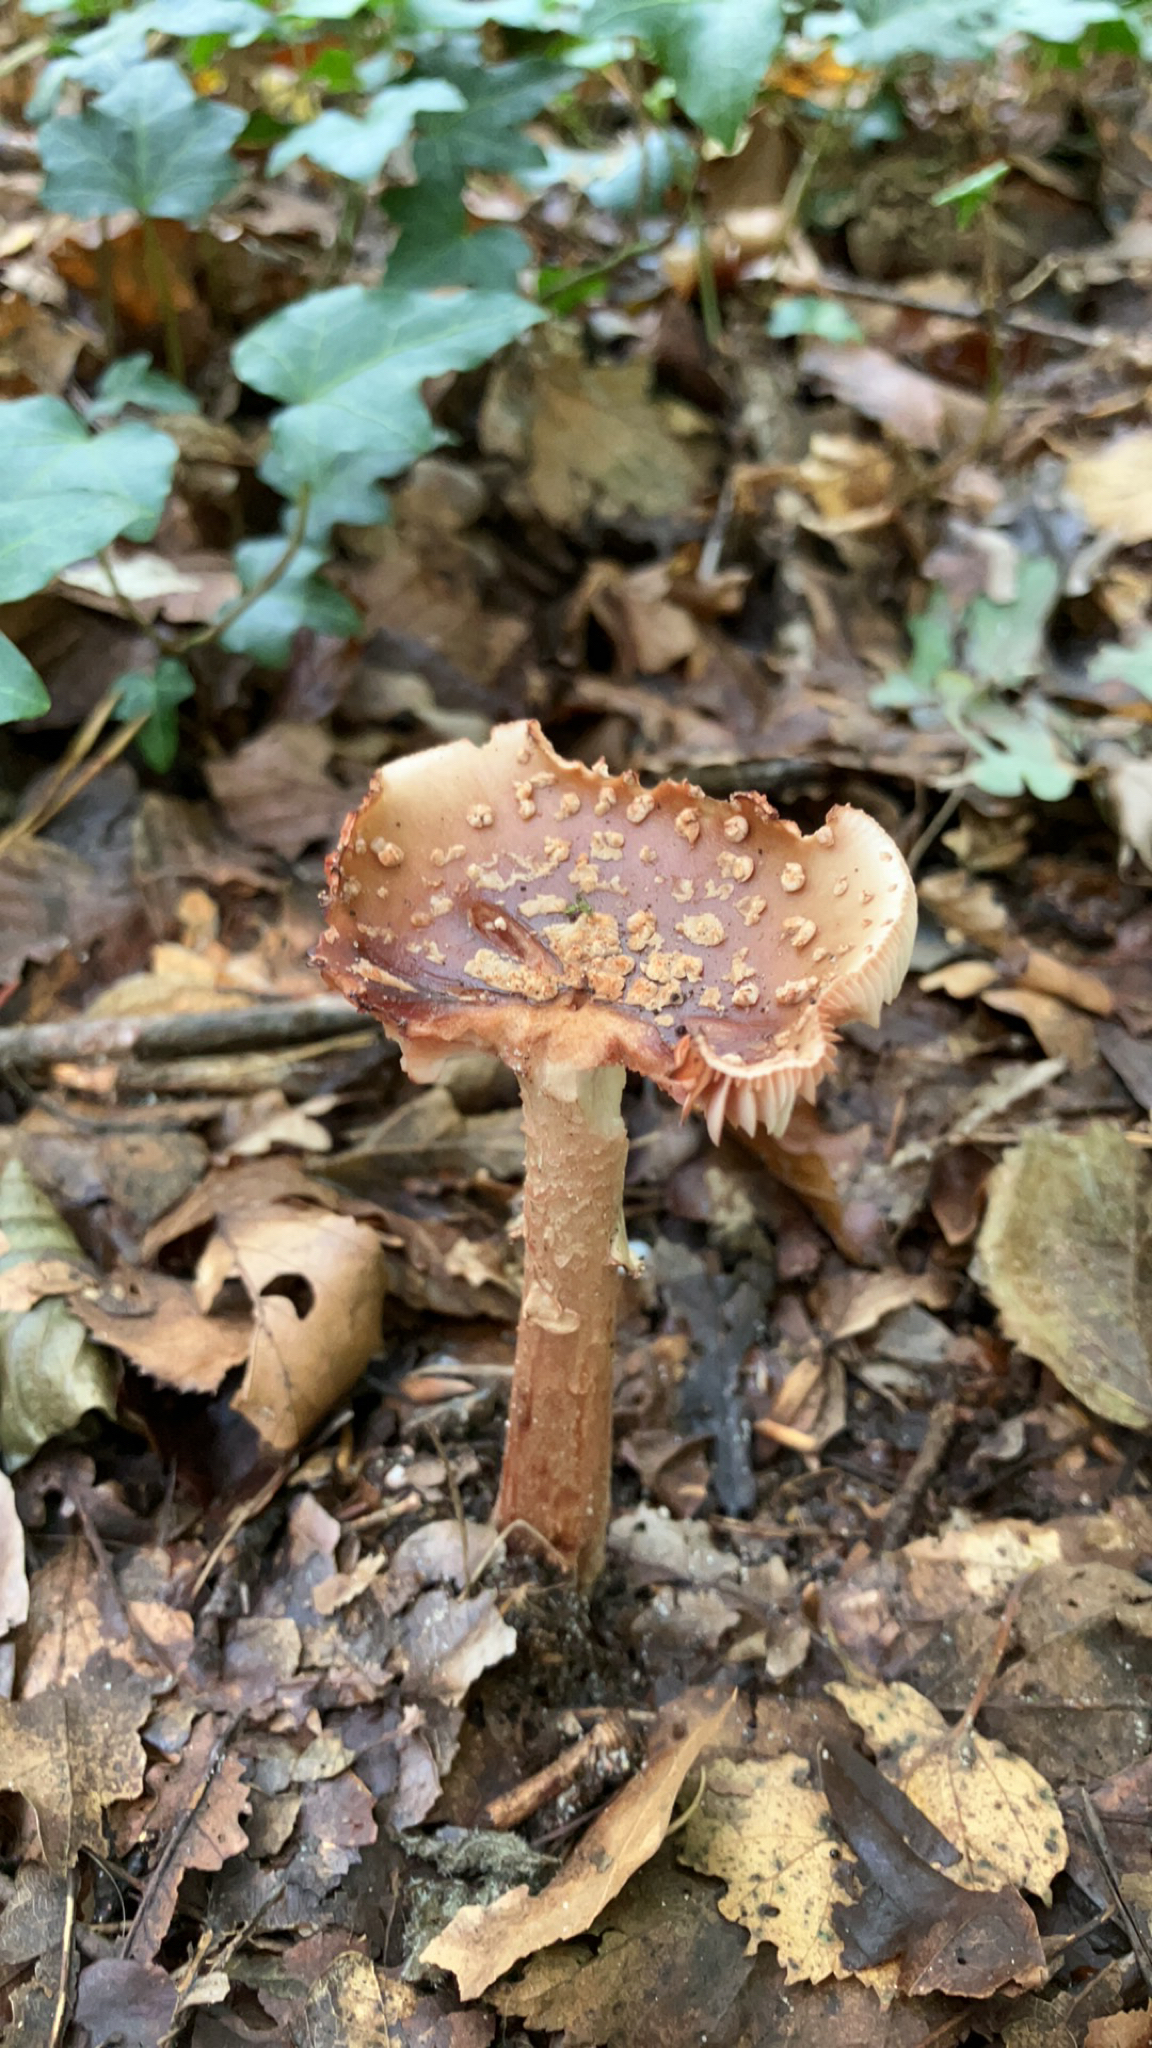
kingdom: Fungi
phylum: Basidiomycota
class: Agaricomycetes
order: Agaricales
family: Amanitaceae
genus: Amanita
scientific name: Amanita rubescens
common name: Blusher
